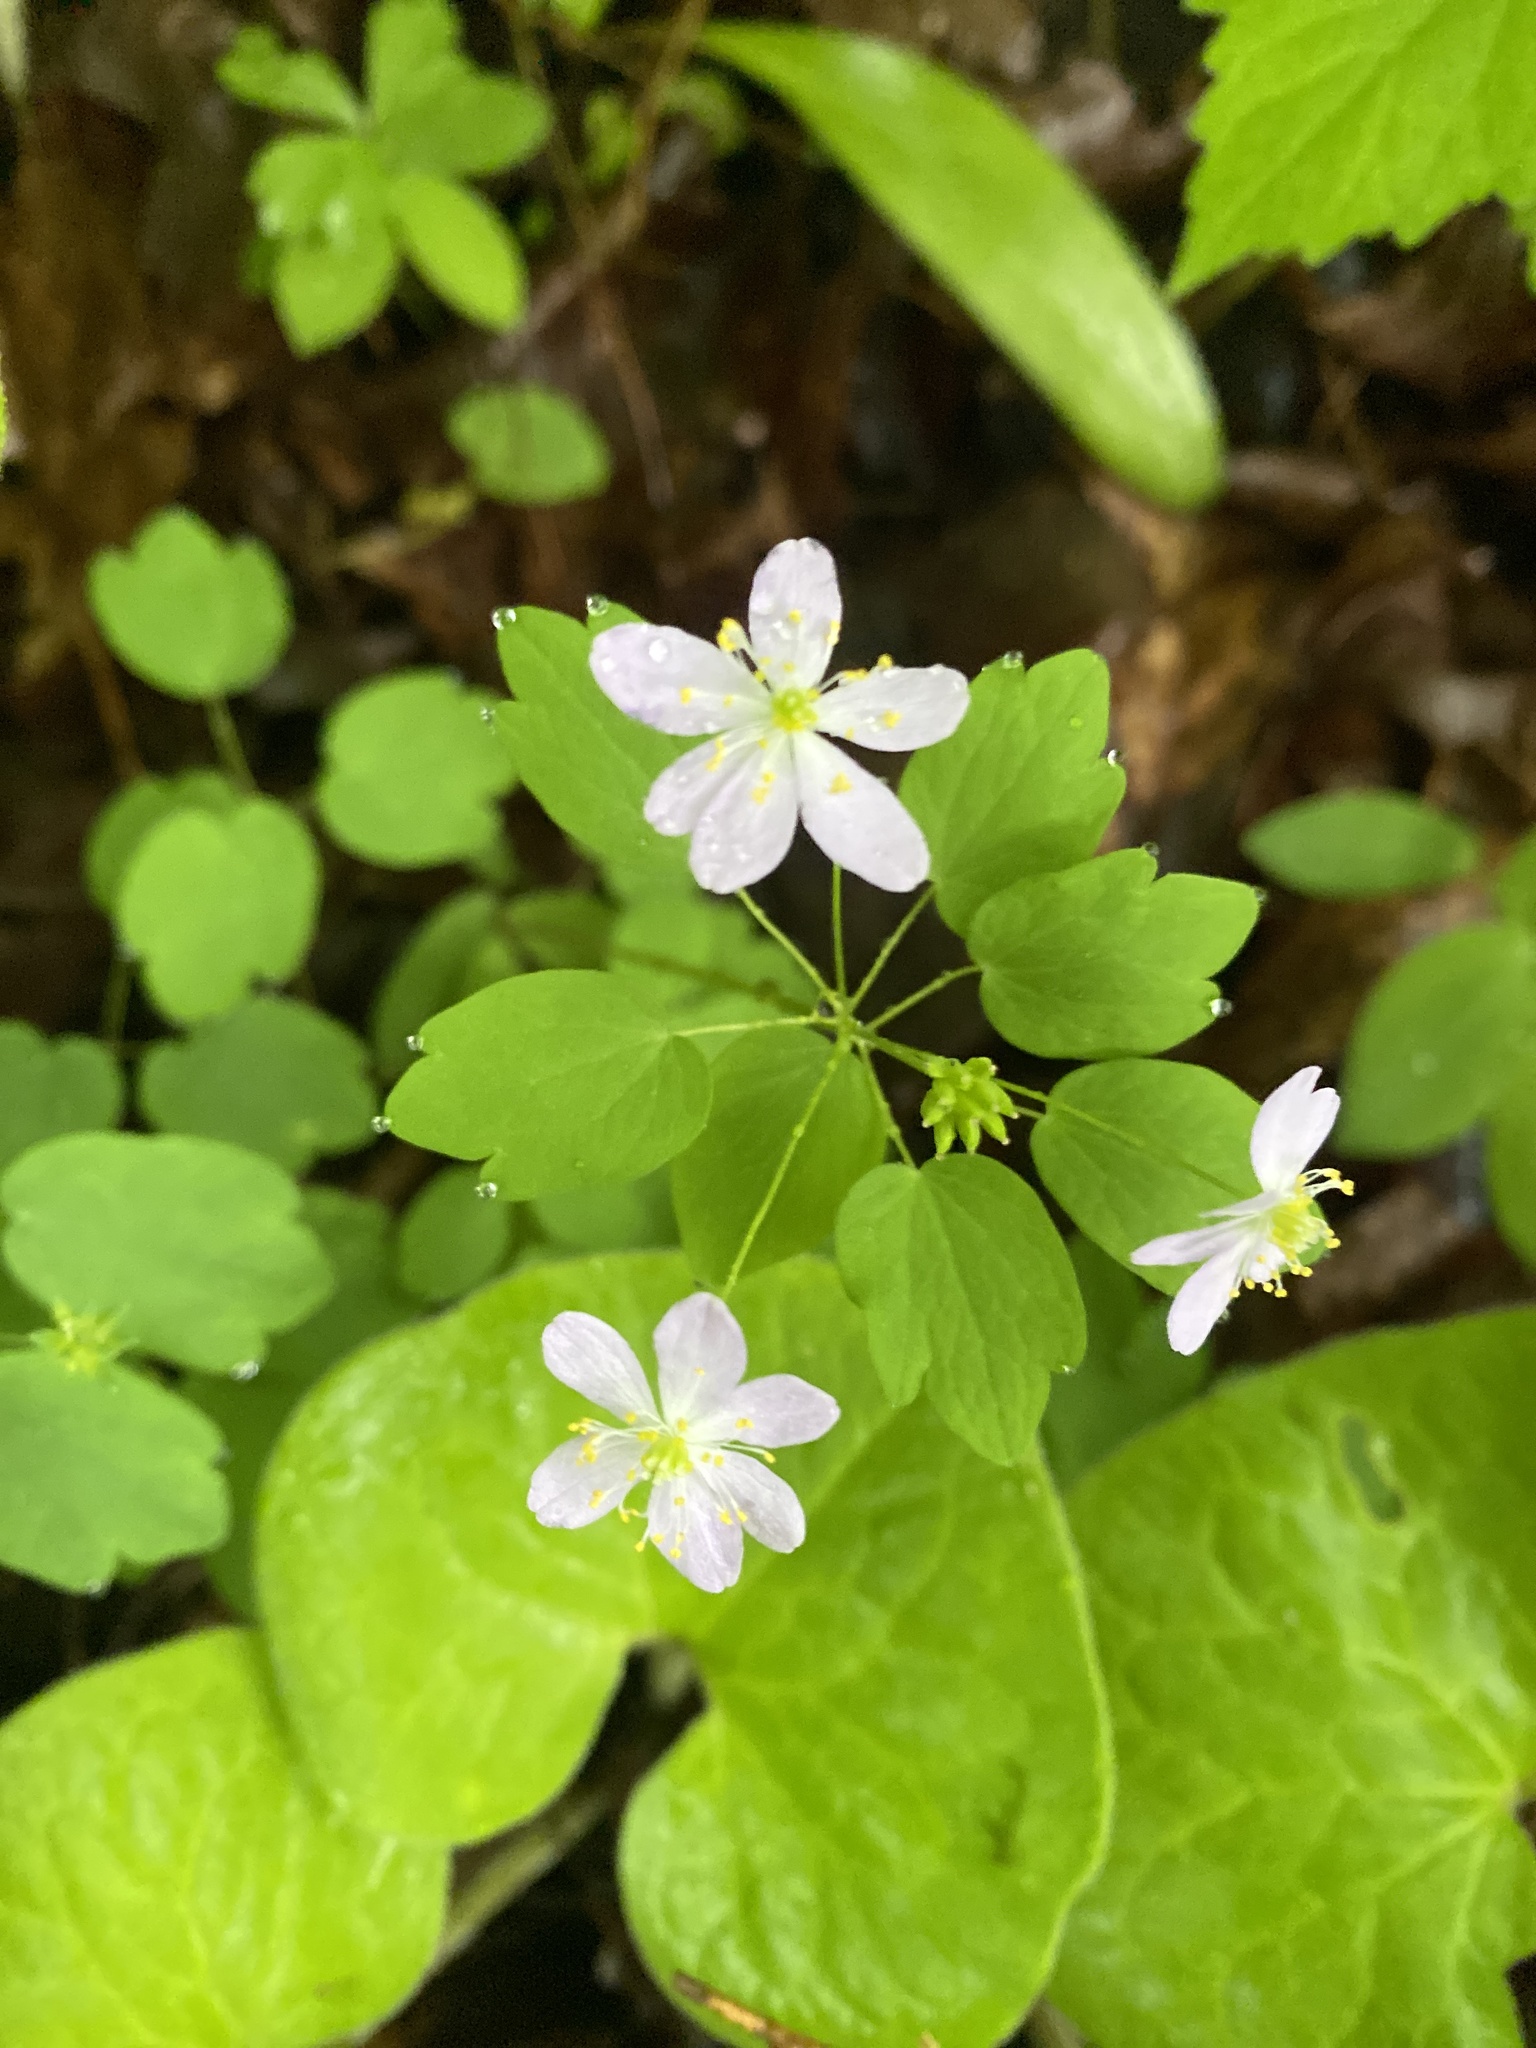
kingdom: Plantae
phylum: Tracheophyta
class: Magnoliopsida
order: Ranunculales
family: Ranunculaceae
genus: Thalictrum
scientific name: Thalictrum thalictroides
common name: Rue-anemone
